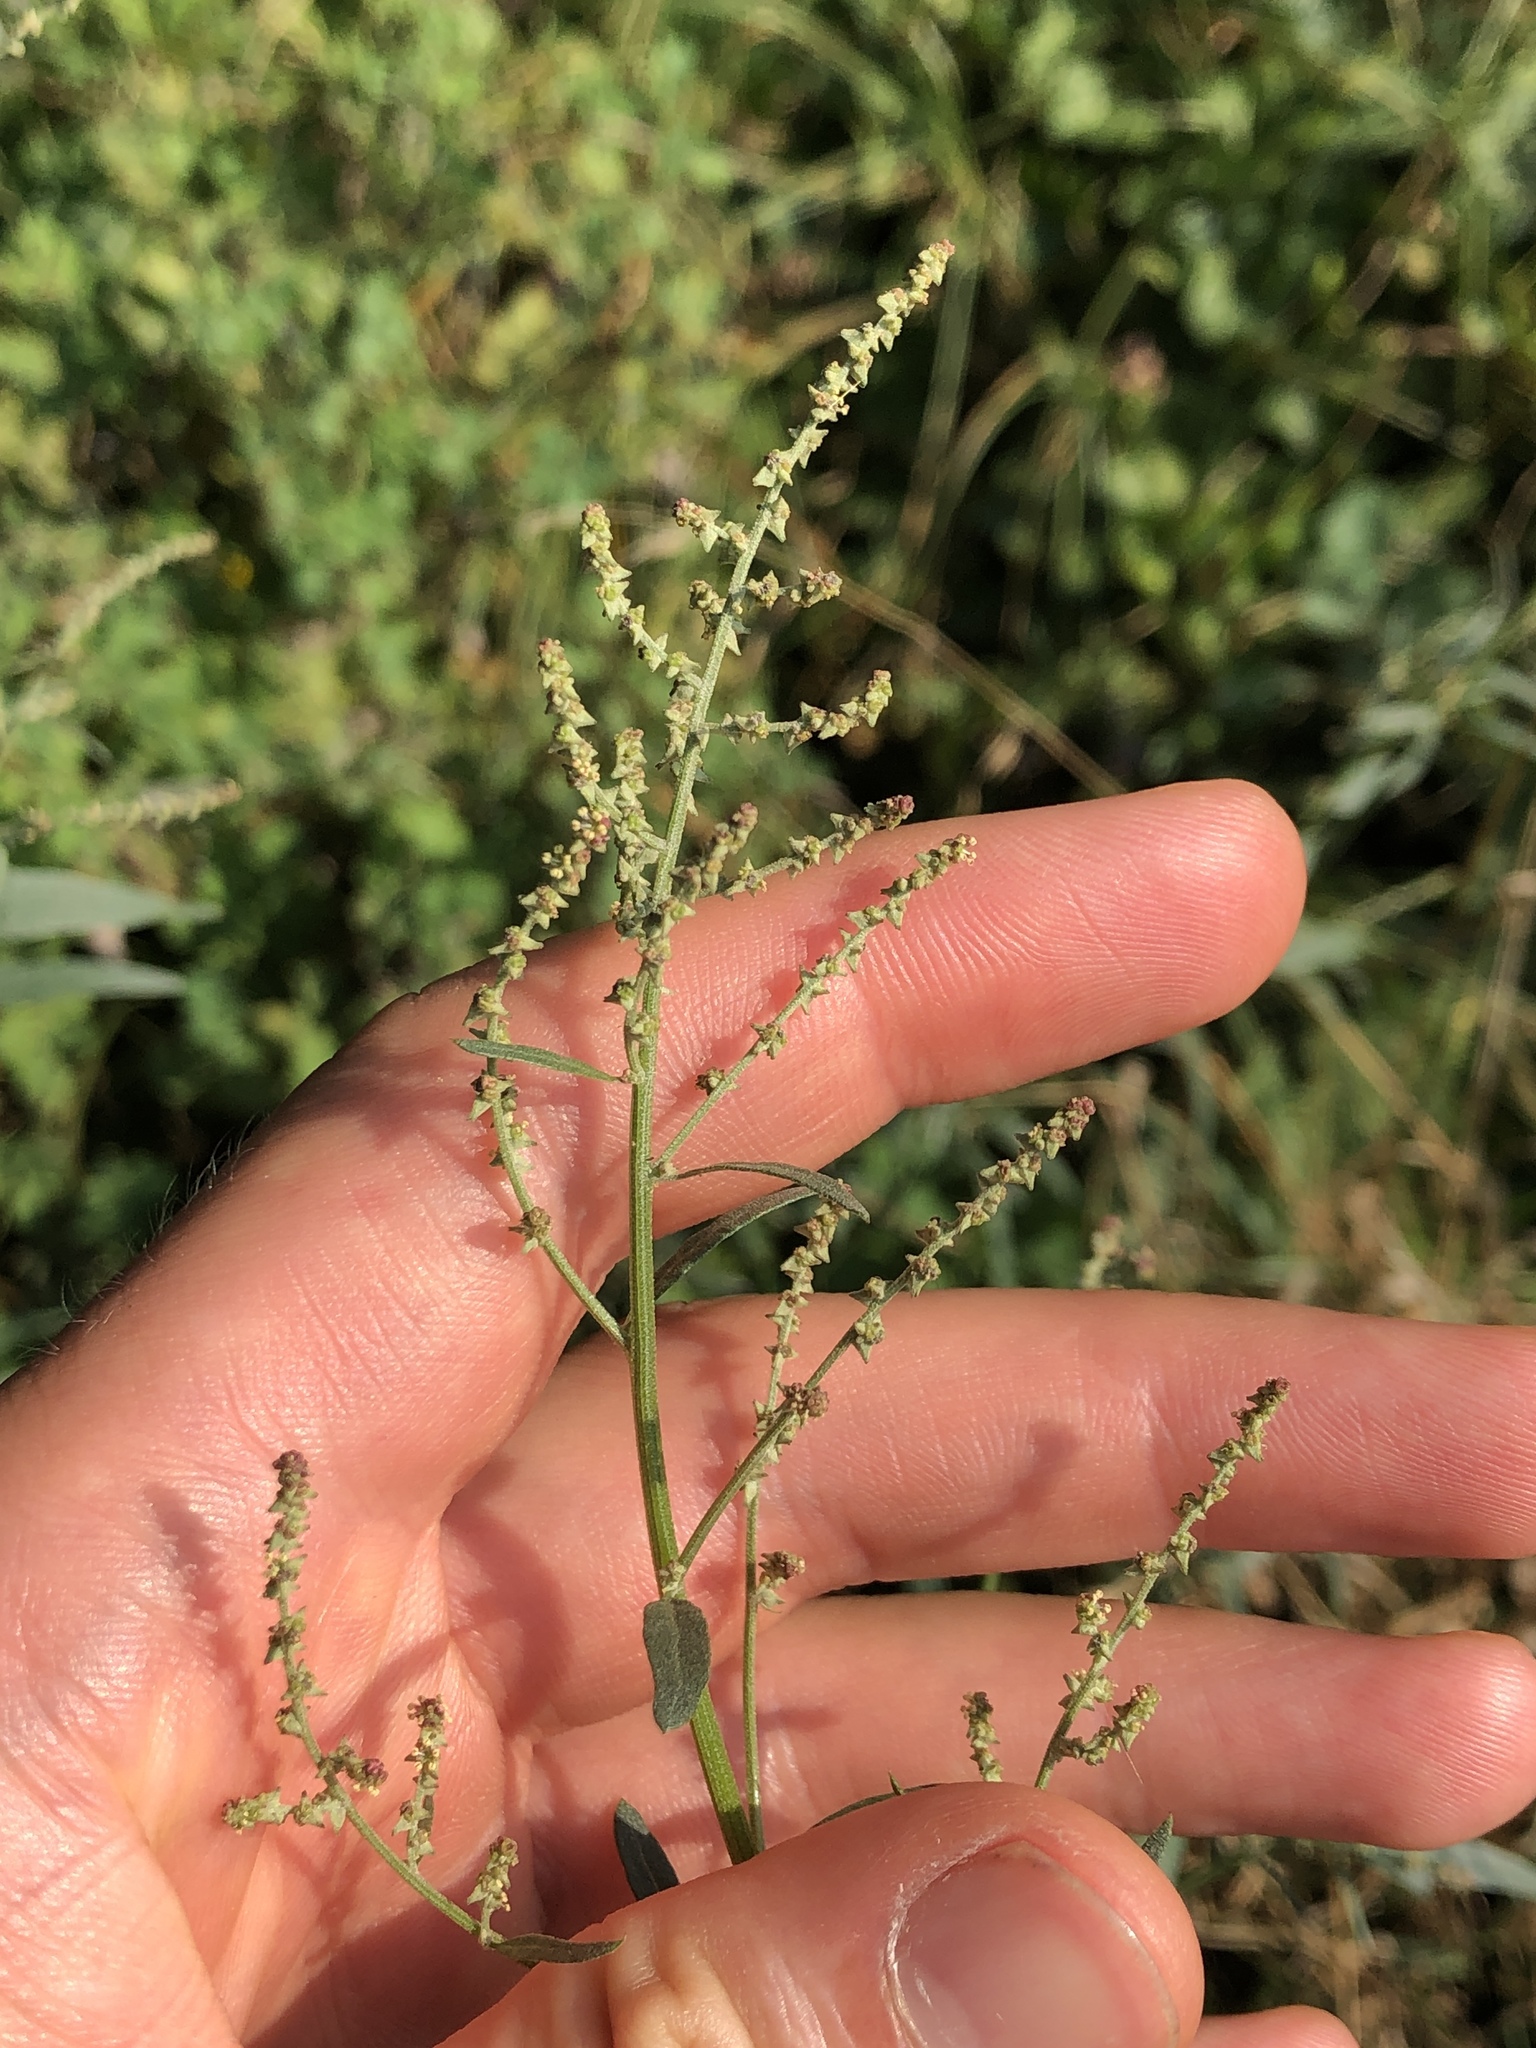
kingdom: Plantae
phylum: Tracheophyta
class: Magnoliopsida
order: Caryophyllales
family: Amaranthaceae
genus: Atriplex
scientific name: Atriplex patula
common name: Common orache
